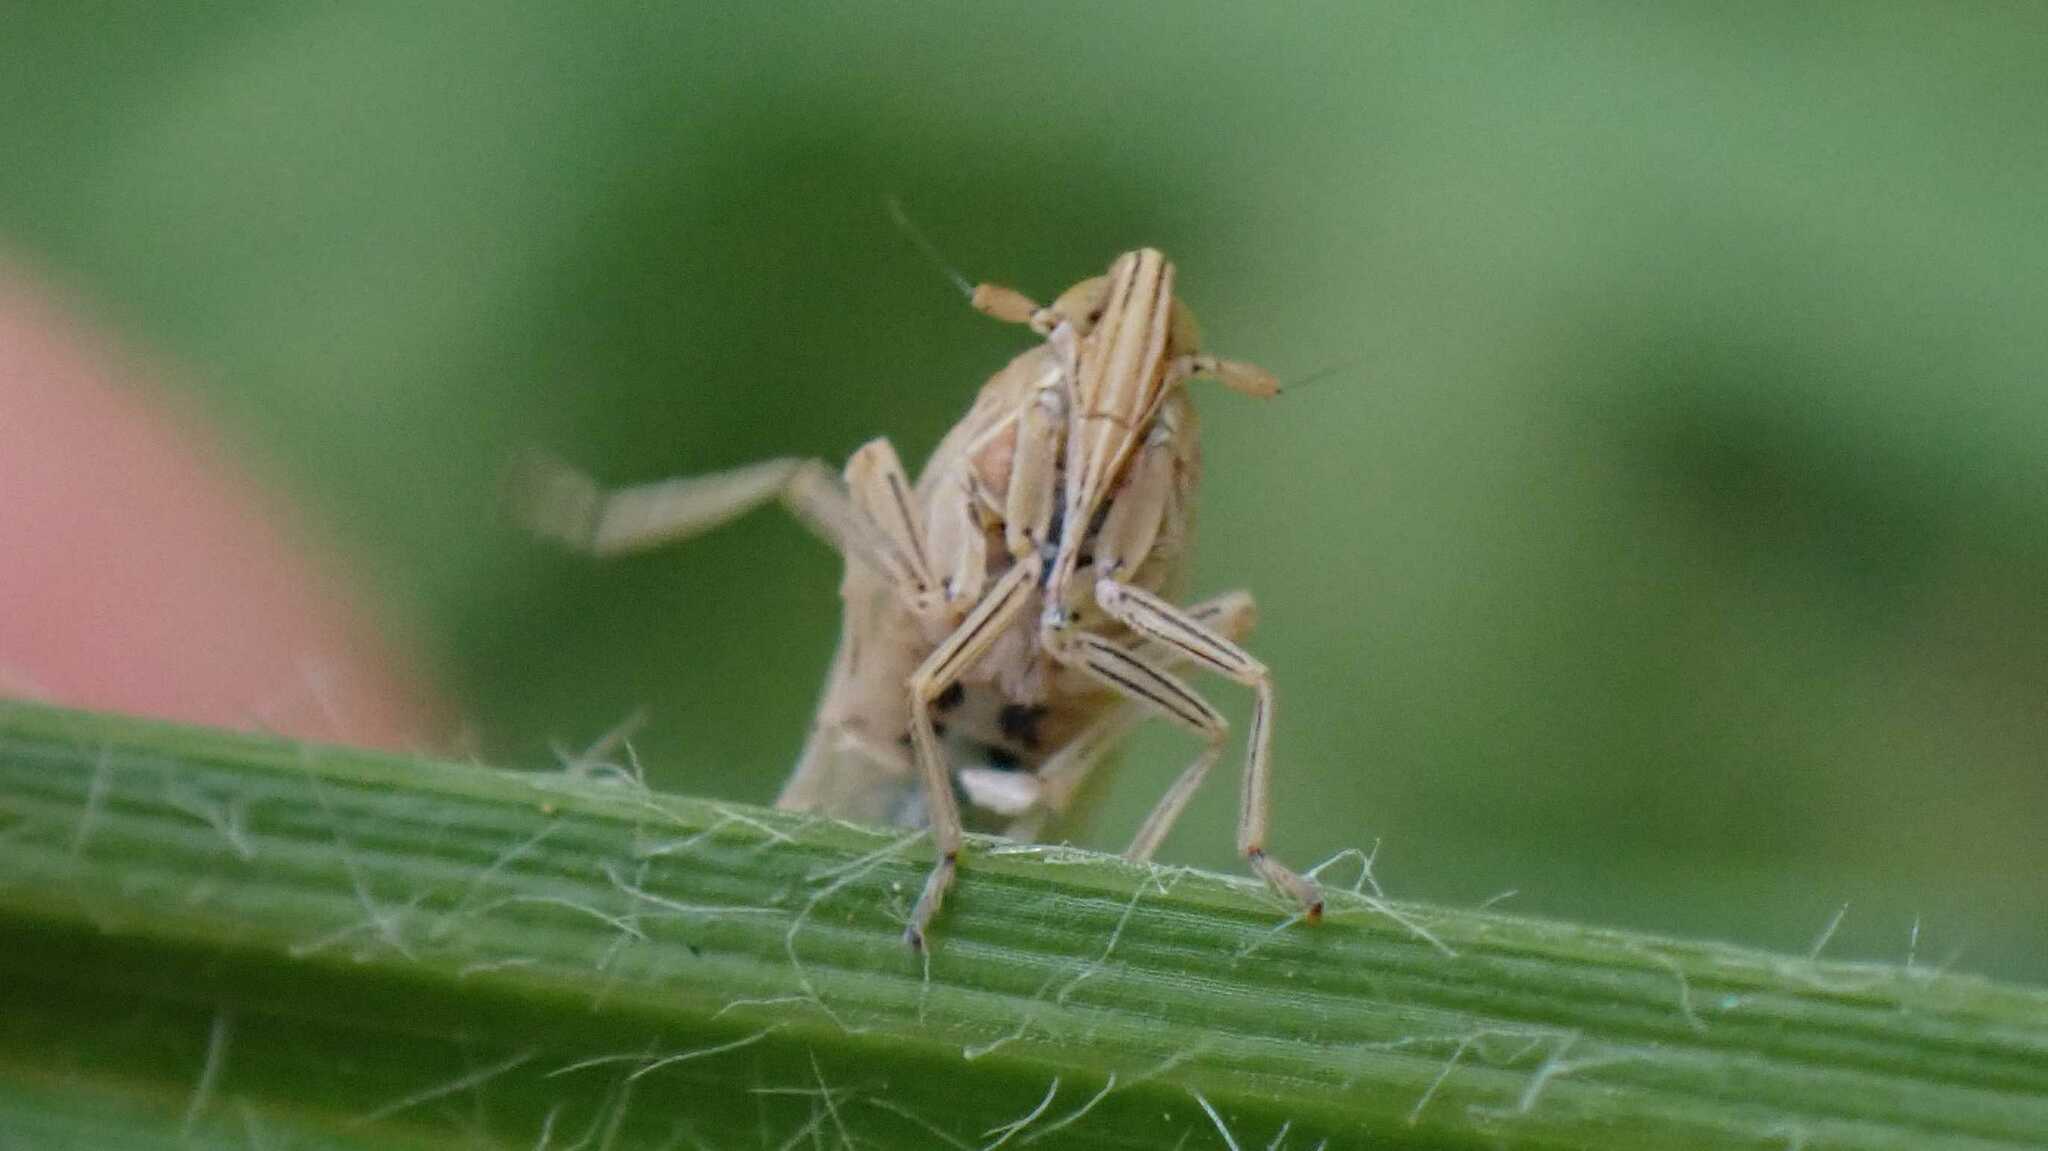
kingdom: Animalia
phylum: Arthropoda
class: Insecta
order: Hemiptera
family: Delphacidae
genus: Stenocranus
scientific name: Stenocranus minutus
